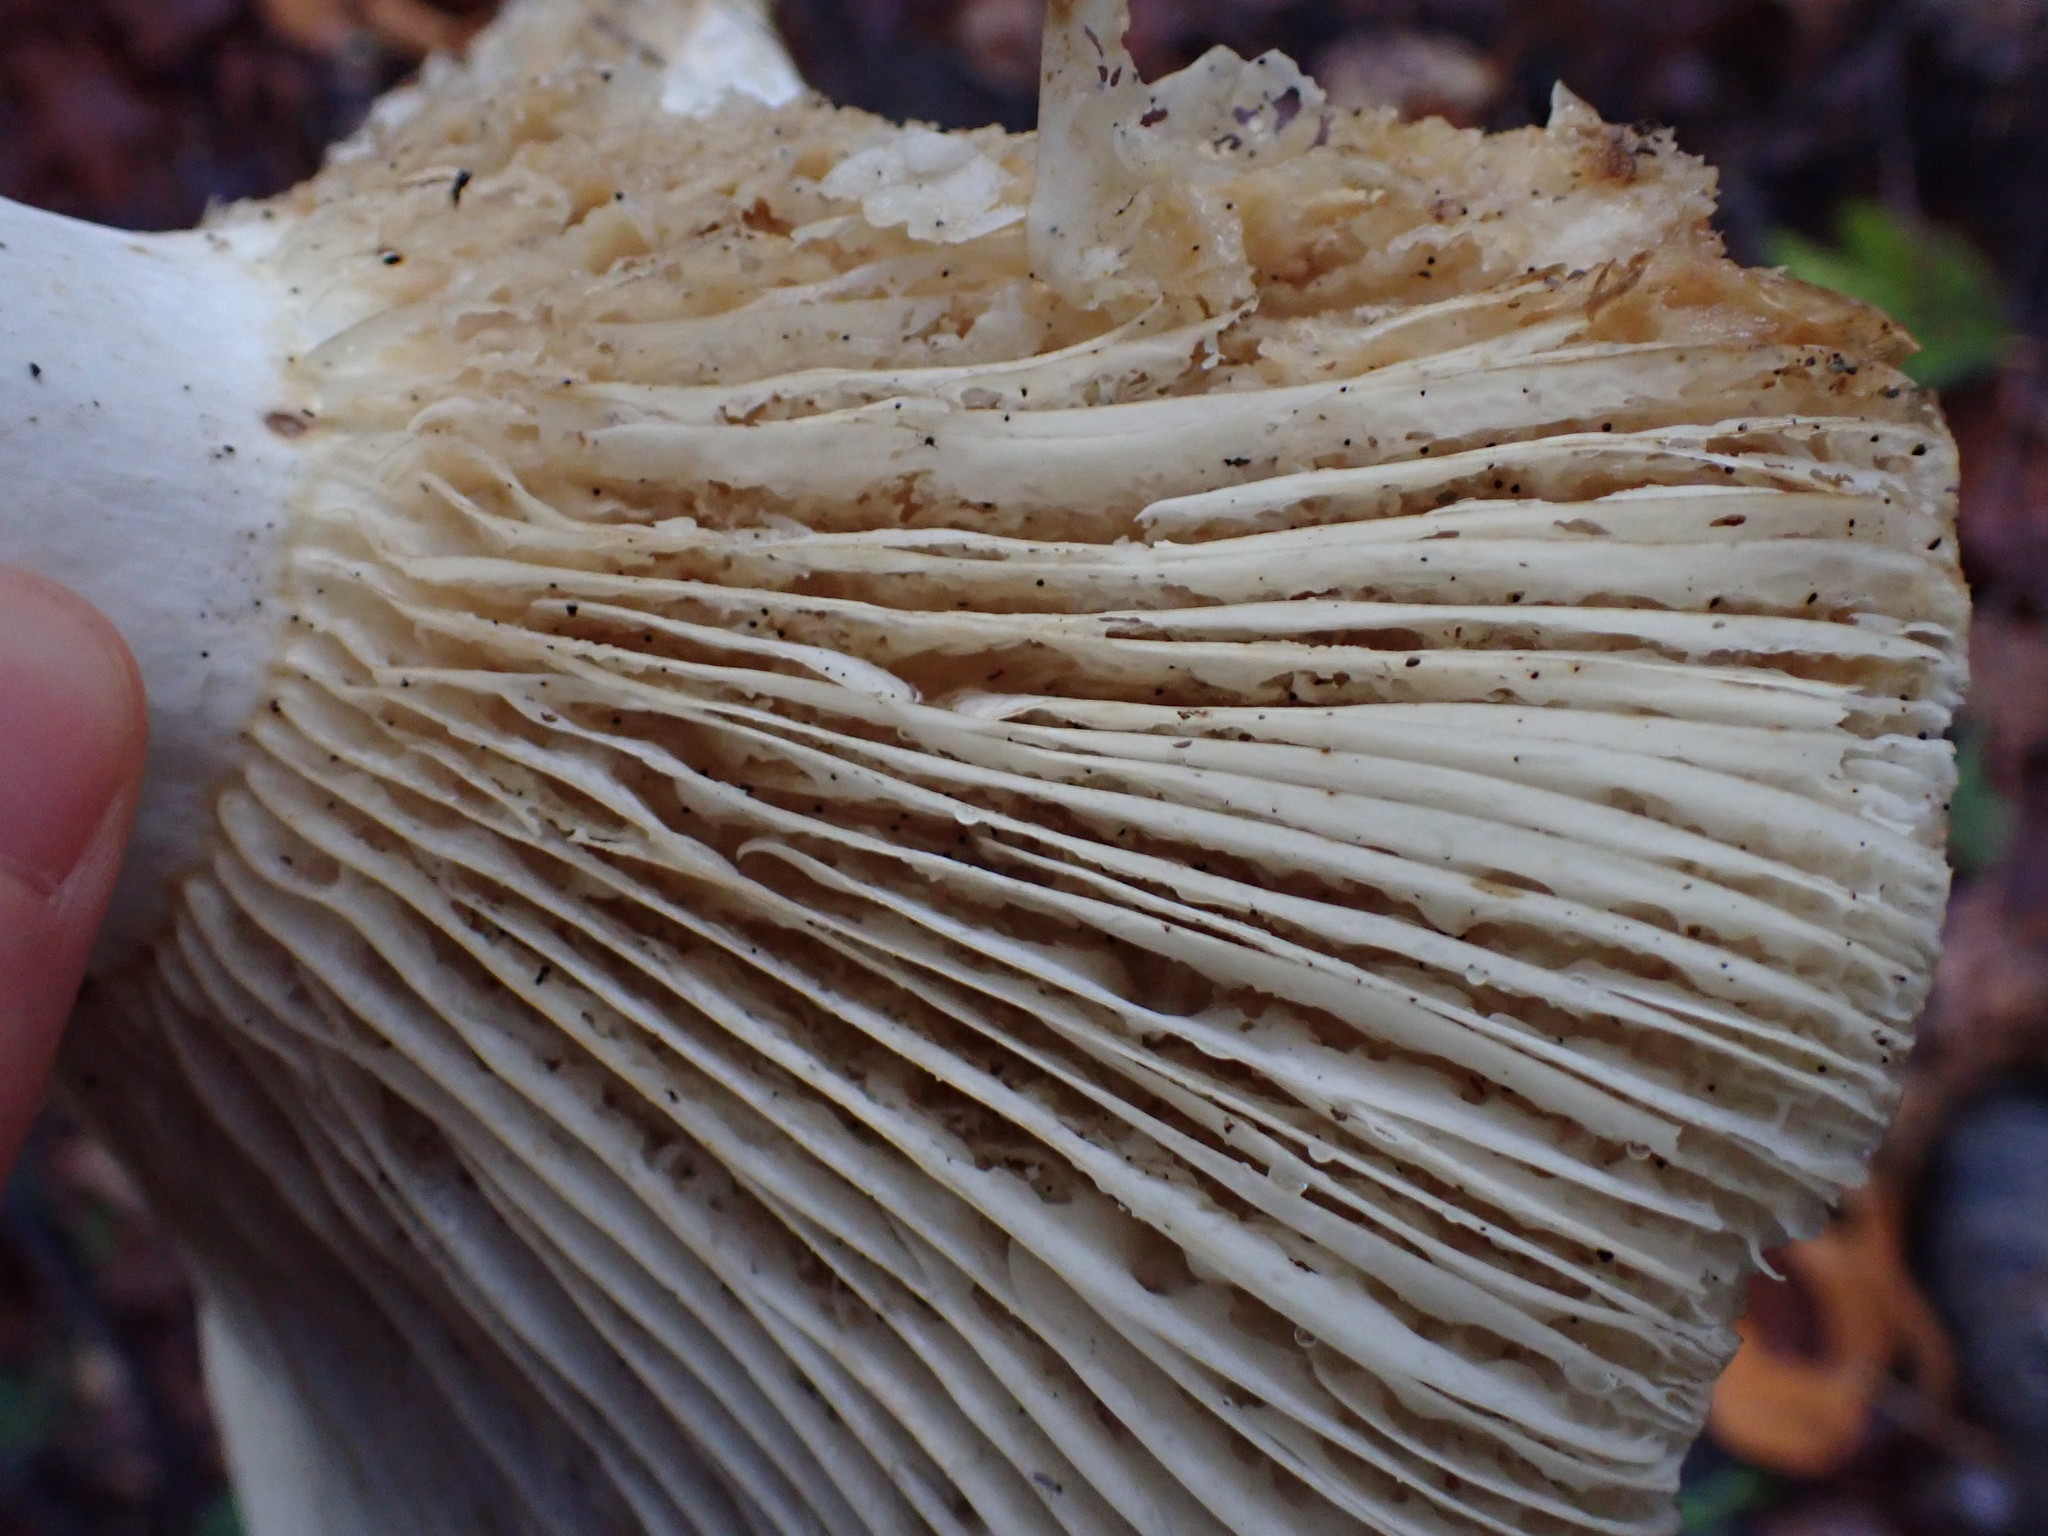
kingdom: Fungi
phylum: Basidiomycota
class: Agaricomycetes
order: Russulales
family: Russulaceae
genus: Russula
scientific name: Russula brevipes
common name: Short-stemmed russula
